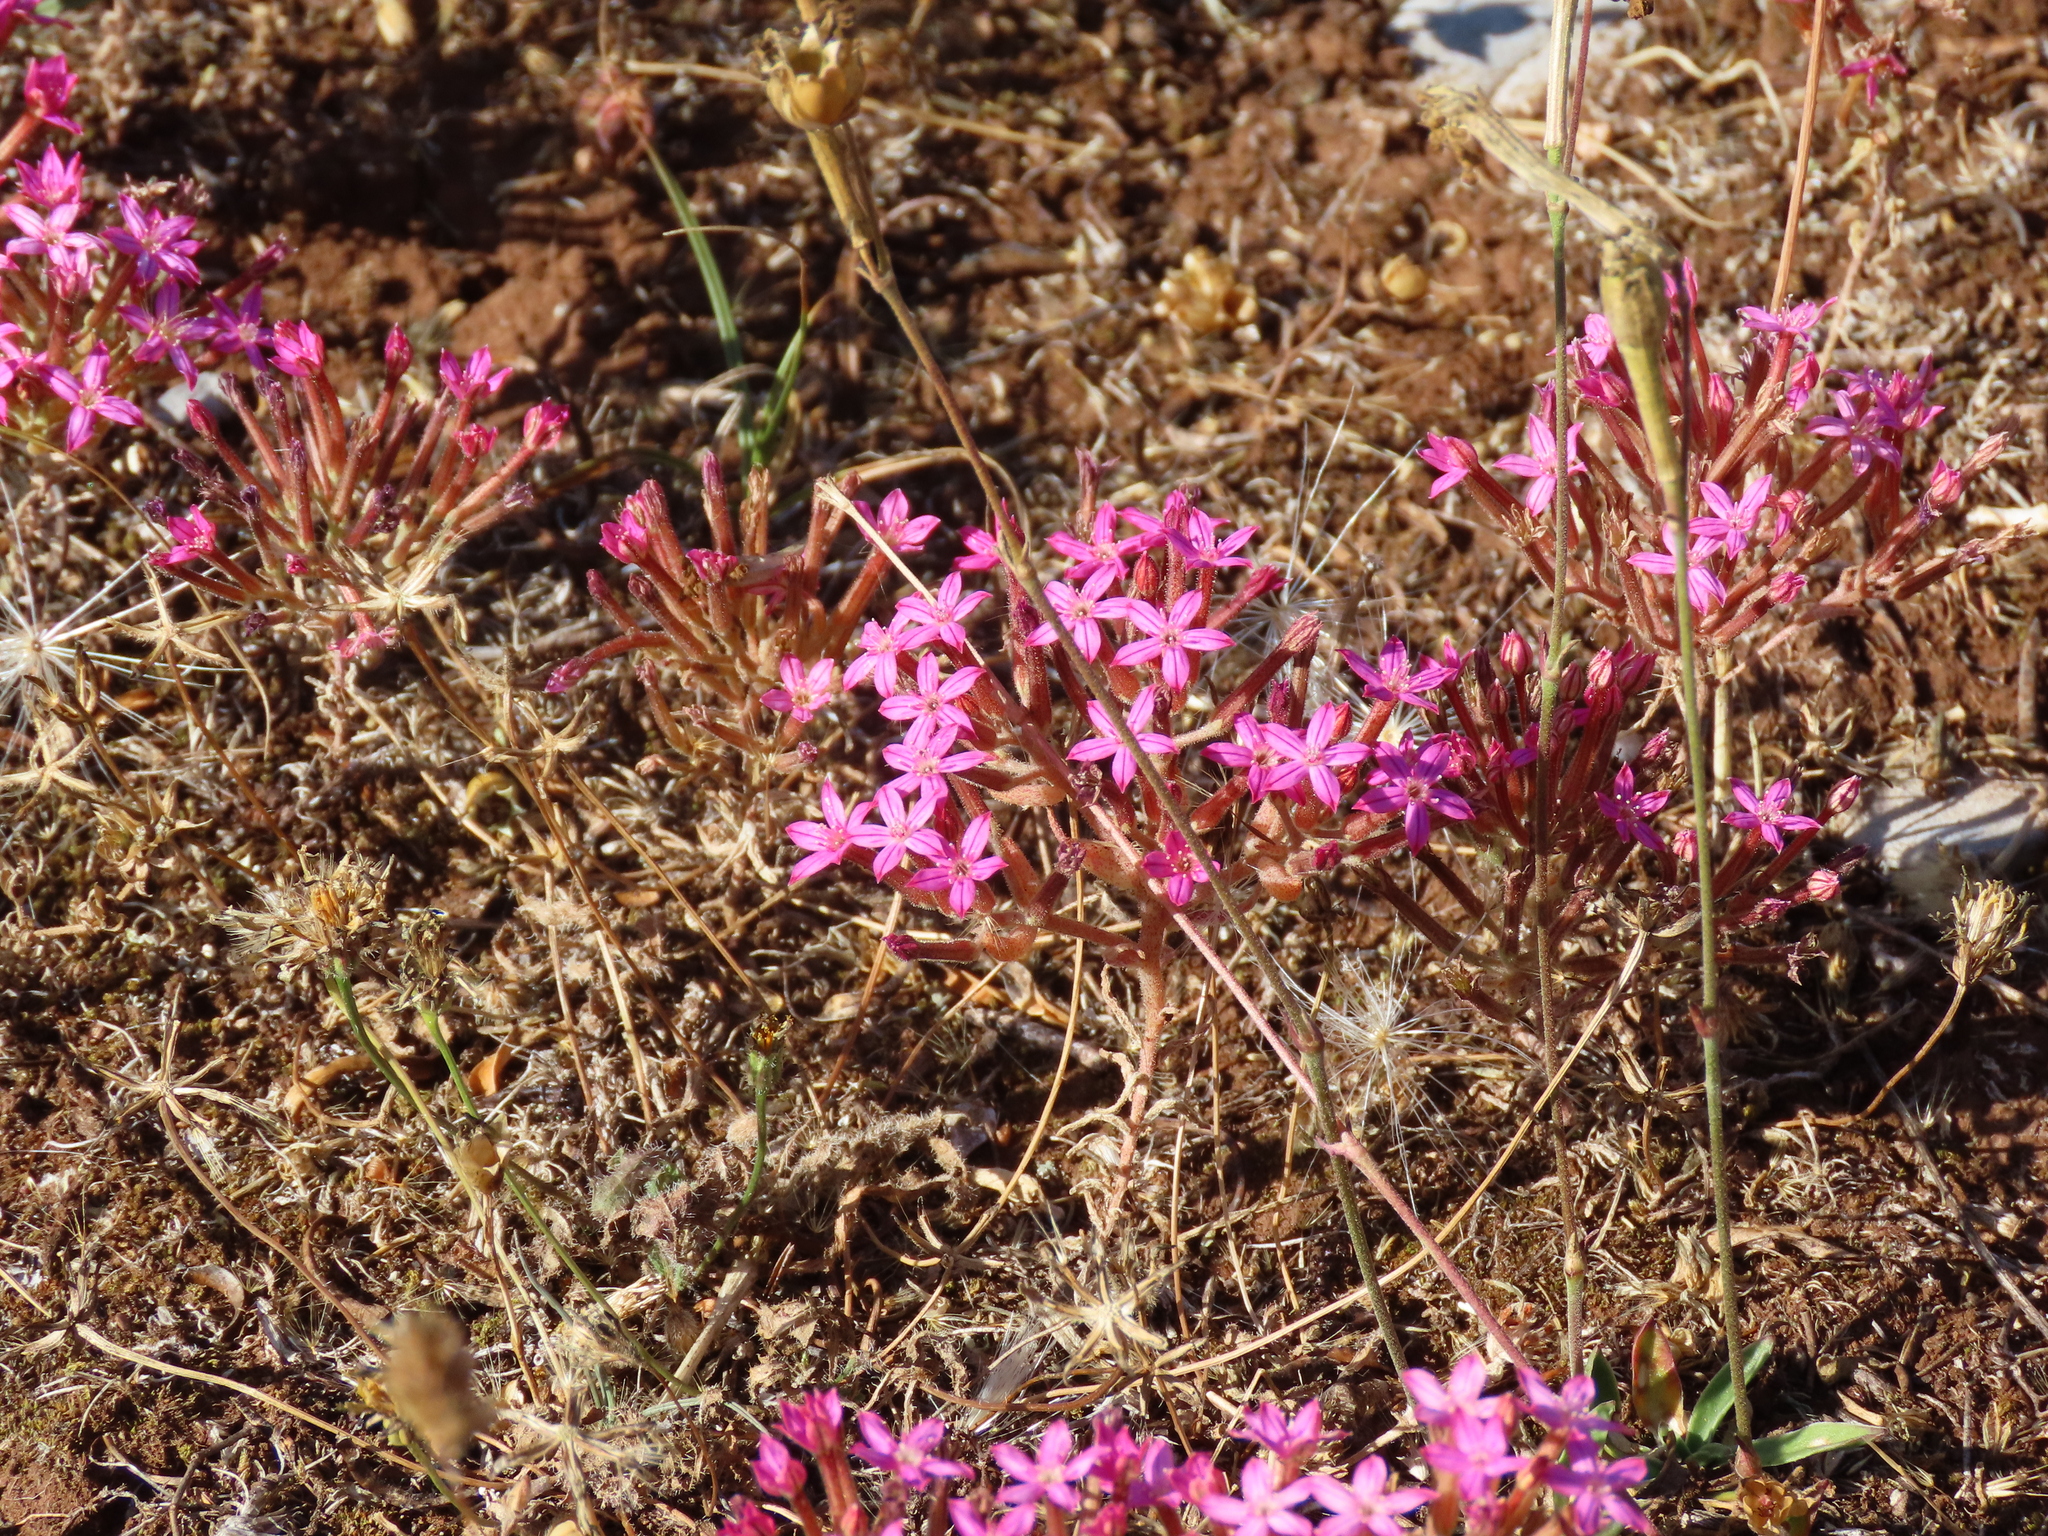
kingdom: Plantae
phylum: Tracheophyta
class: Magnoliopsida
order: Saxifragales
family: Crassulaceae
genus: Pistorinia
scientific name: Pistorinia hispanica
